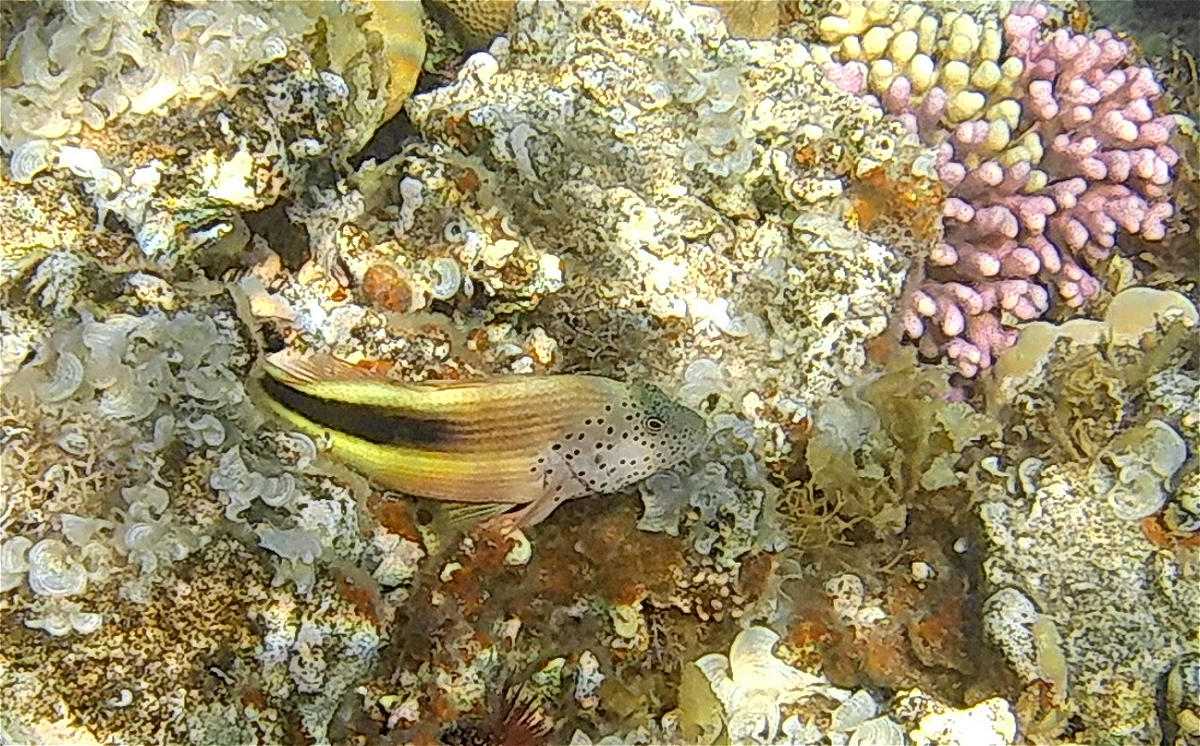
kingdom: Animalia
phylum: Chordata
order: Perciformes
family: Cirrhitidae
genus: Paracirrhites
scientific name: Paracirrhites forsteri
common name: Freckled hawkfish
